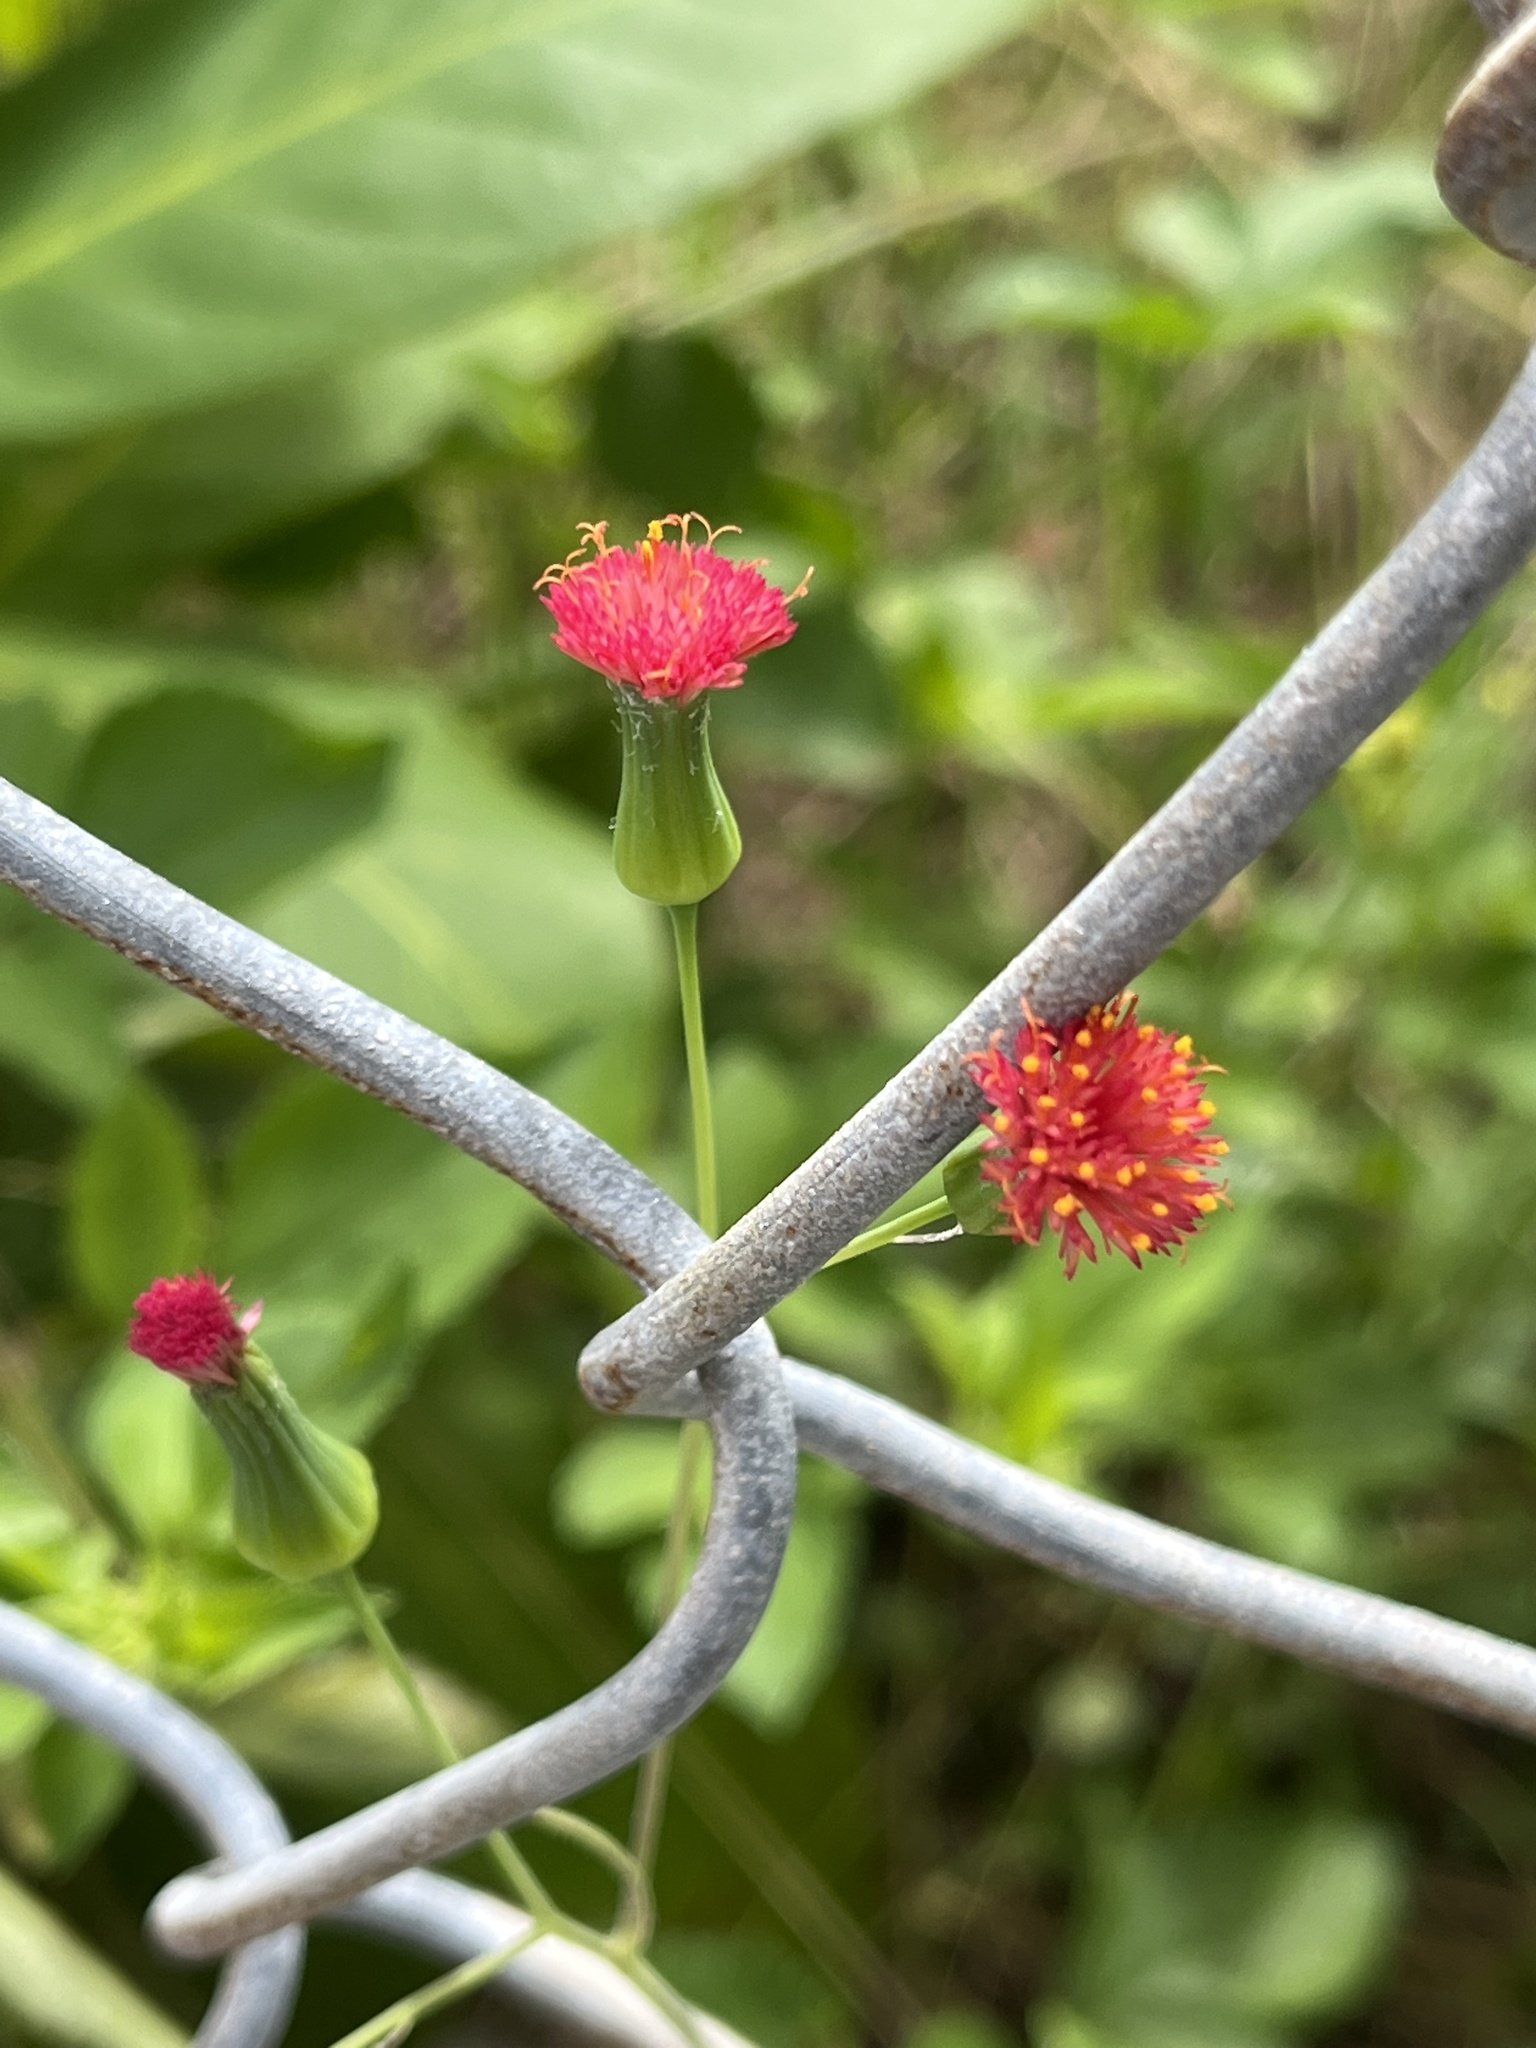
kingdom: Plantae
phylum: Tracheophyta
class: Magnoliopsida
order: Asterales
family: Asteraceae
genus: Emilia
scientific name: Emilia fosbergii
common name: Florida tasselflower
